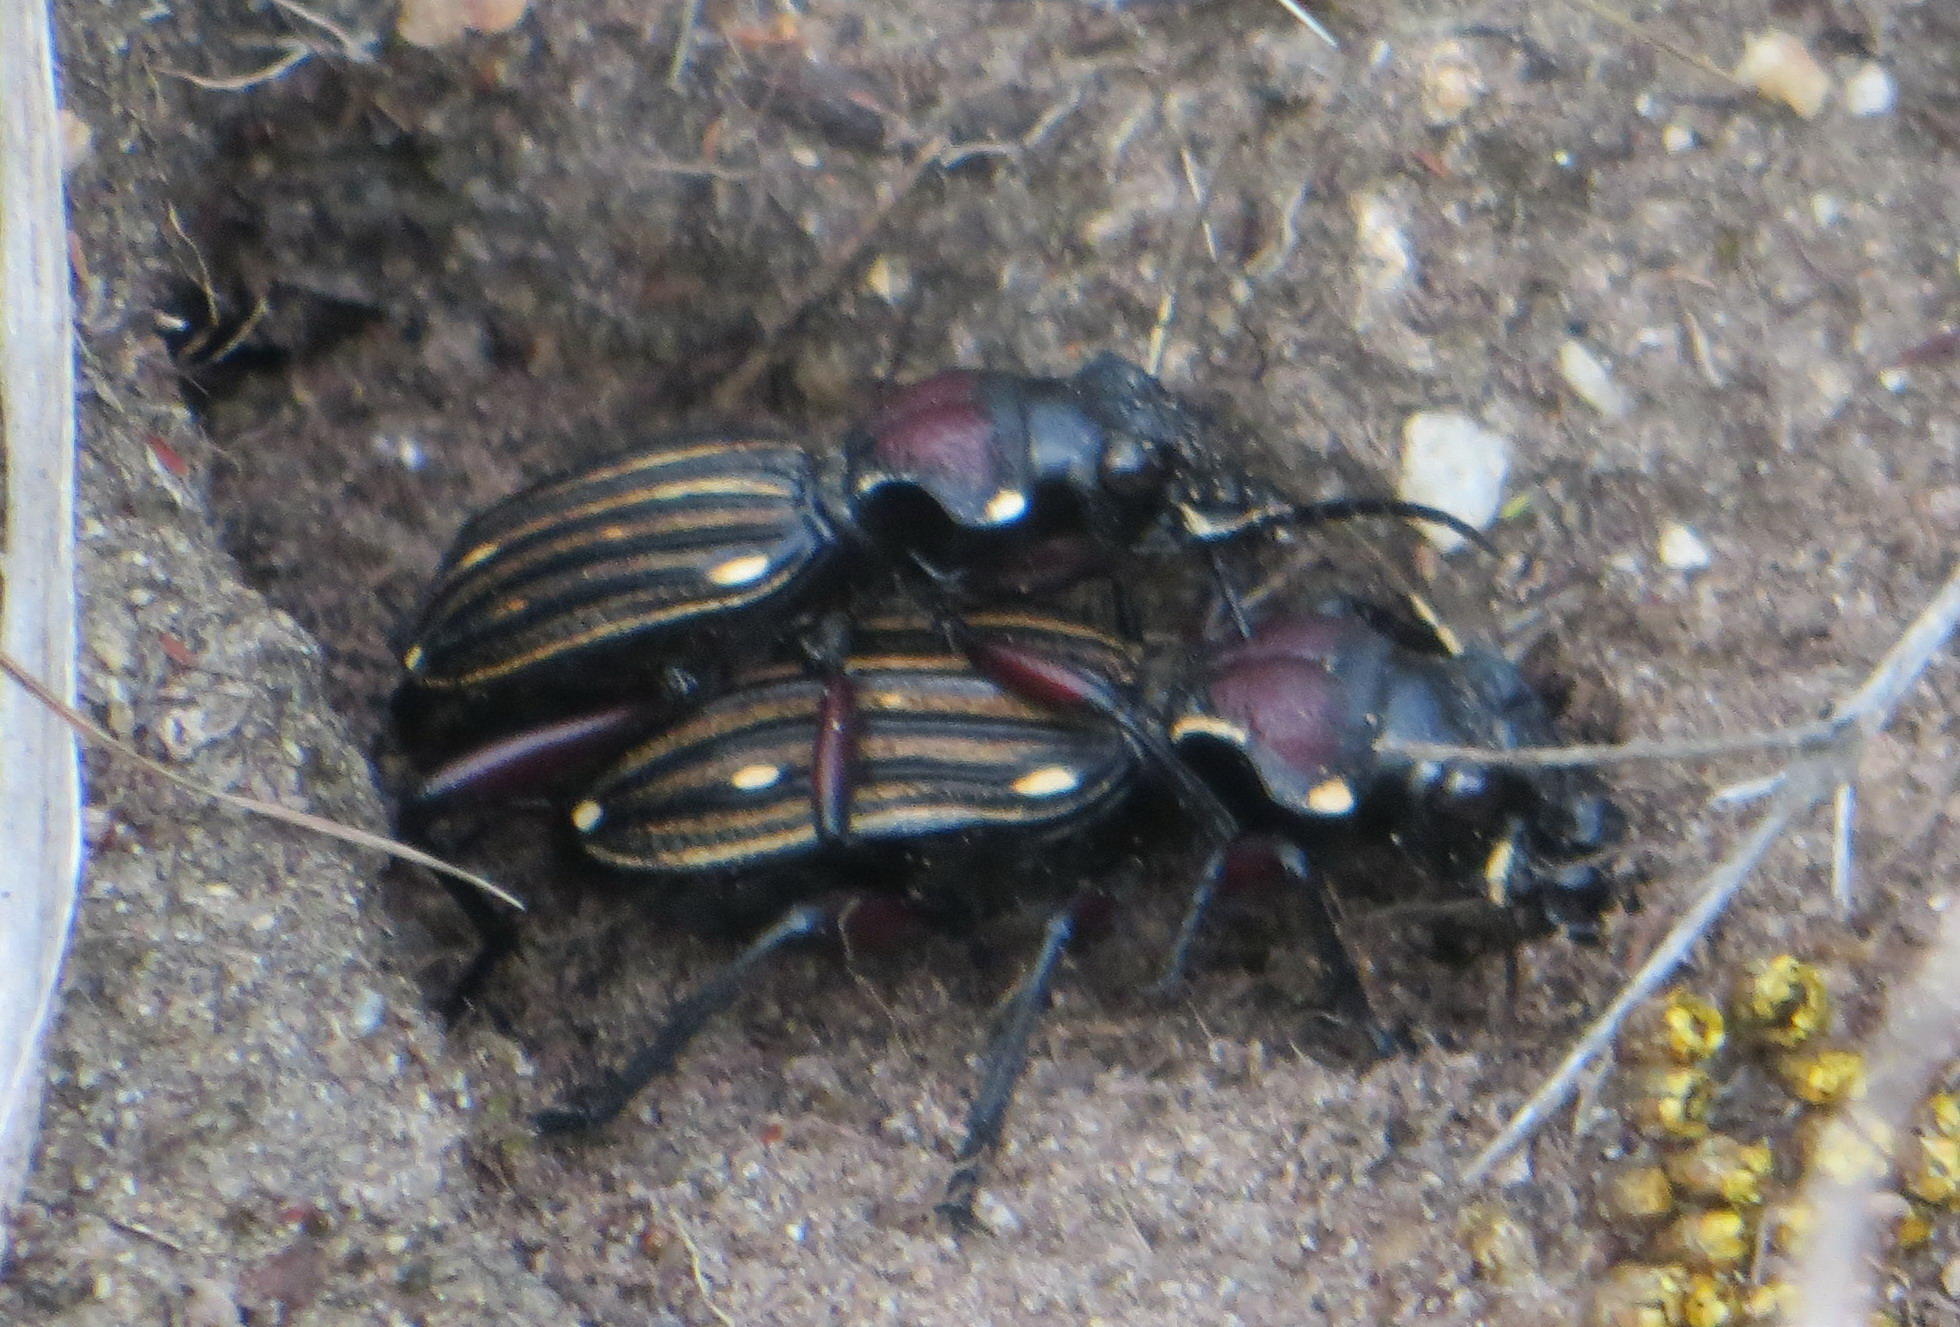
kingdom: Animalia
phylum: Arthropoda
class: Insecta
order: Coleoptera
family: Carabidae
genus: Anthia
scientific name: Anthia decemguttata
